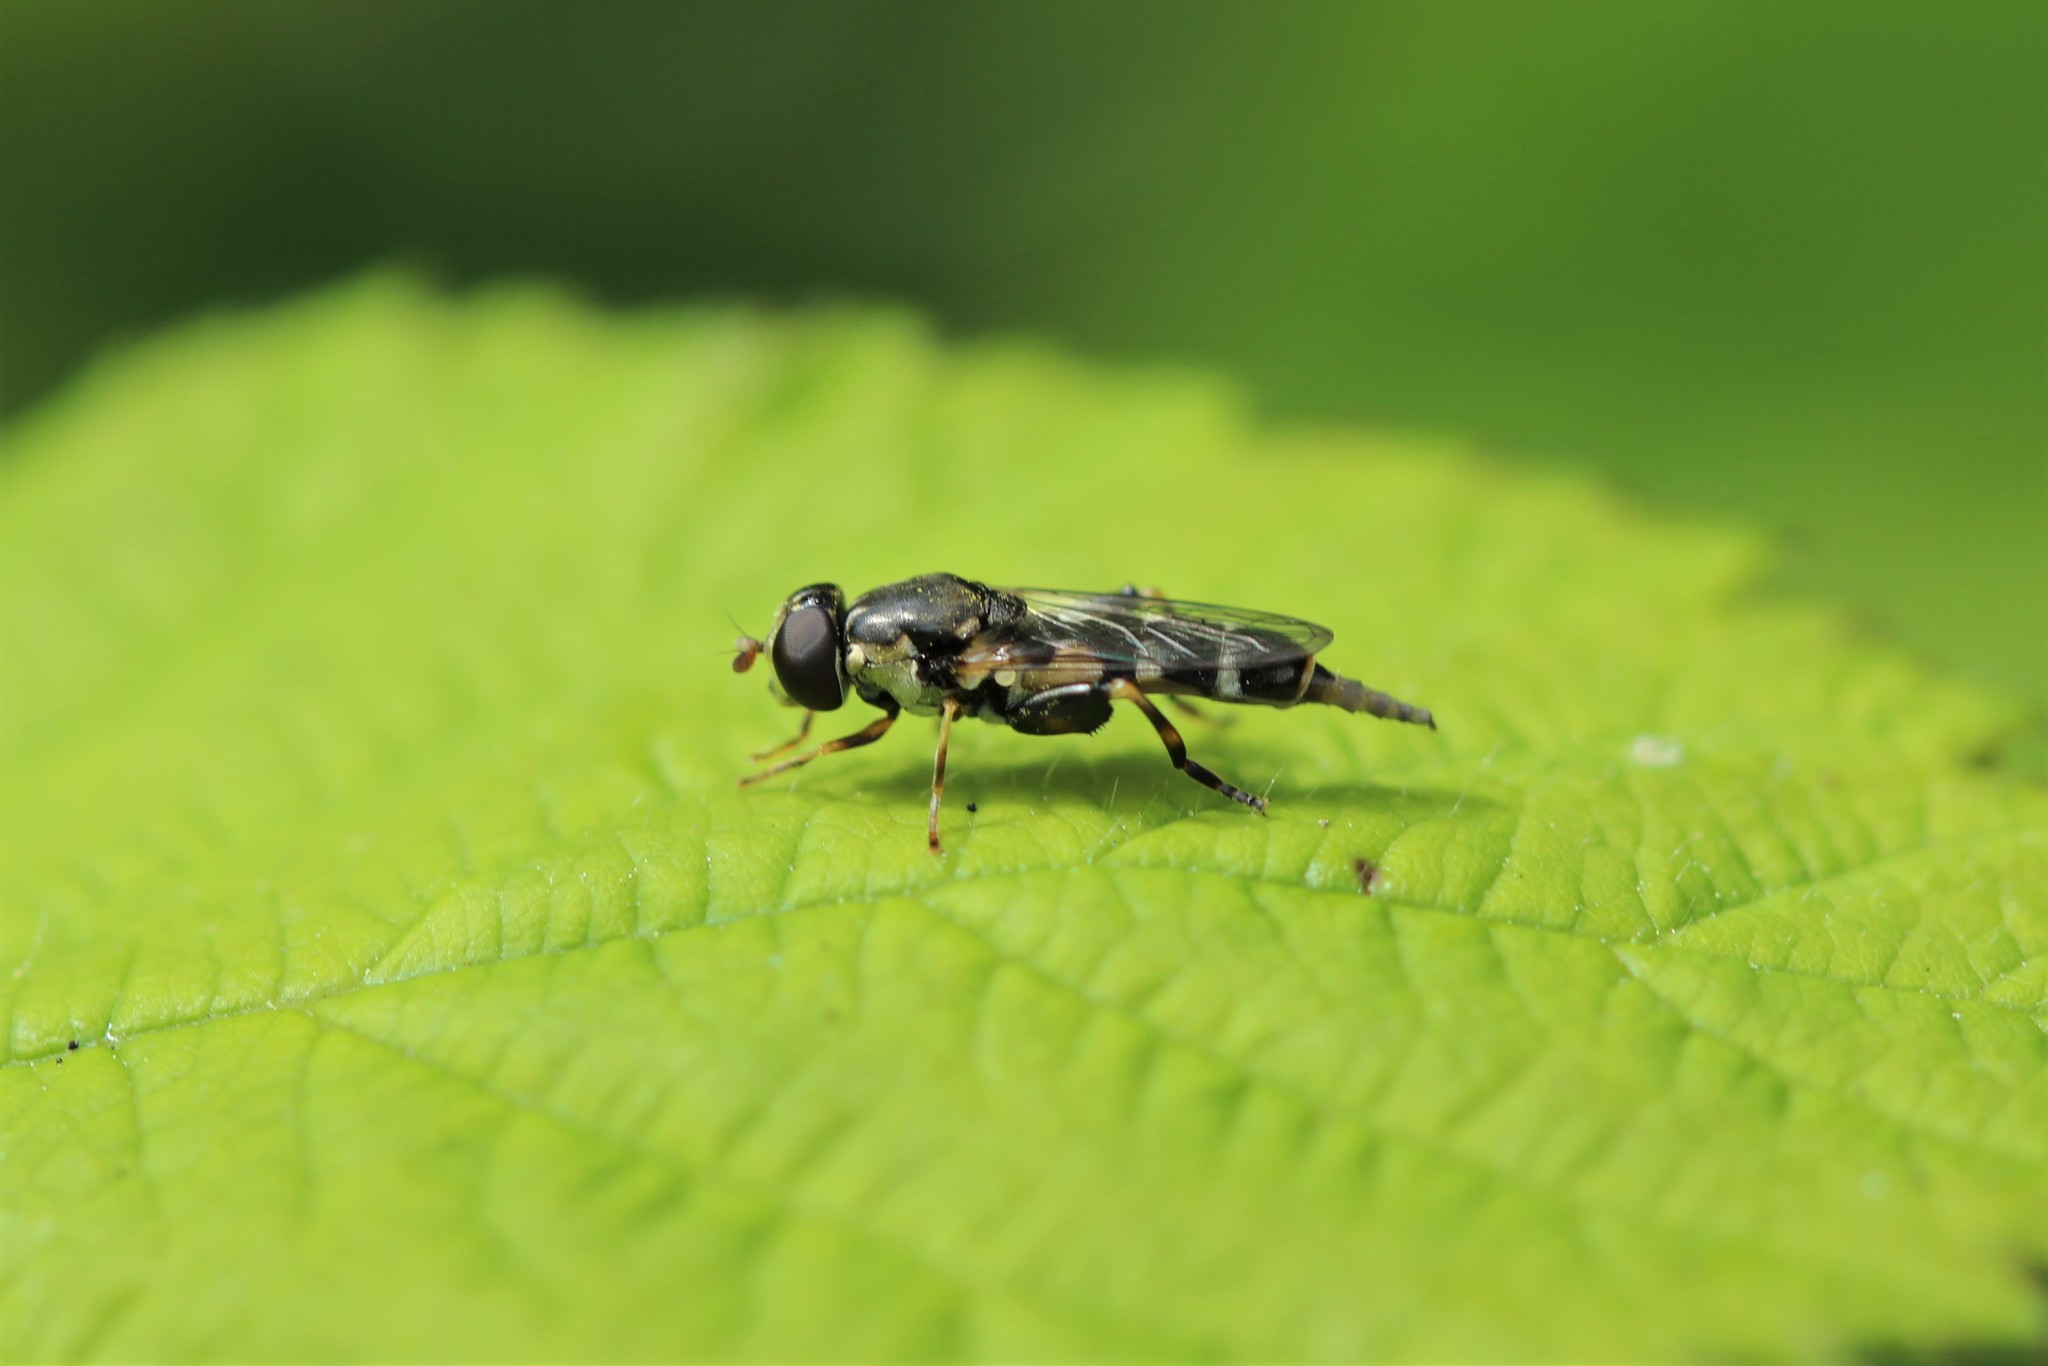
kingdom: Animalia
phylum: Arthropoda
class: Insecta
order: Diptera
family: Syrphidae
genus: Syritta
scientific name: Syritta pipiens
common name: Hover fly
